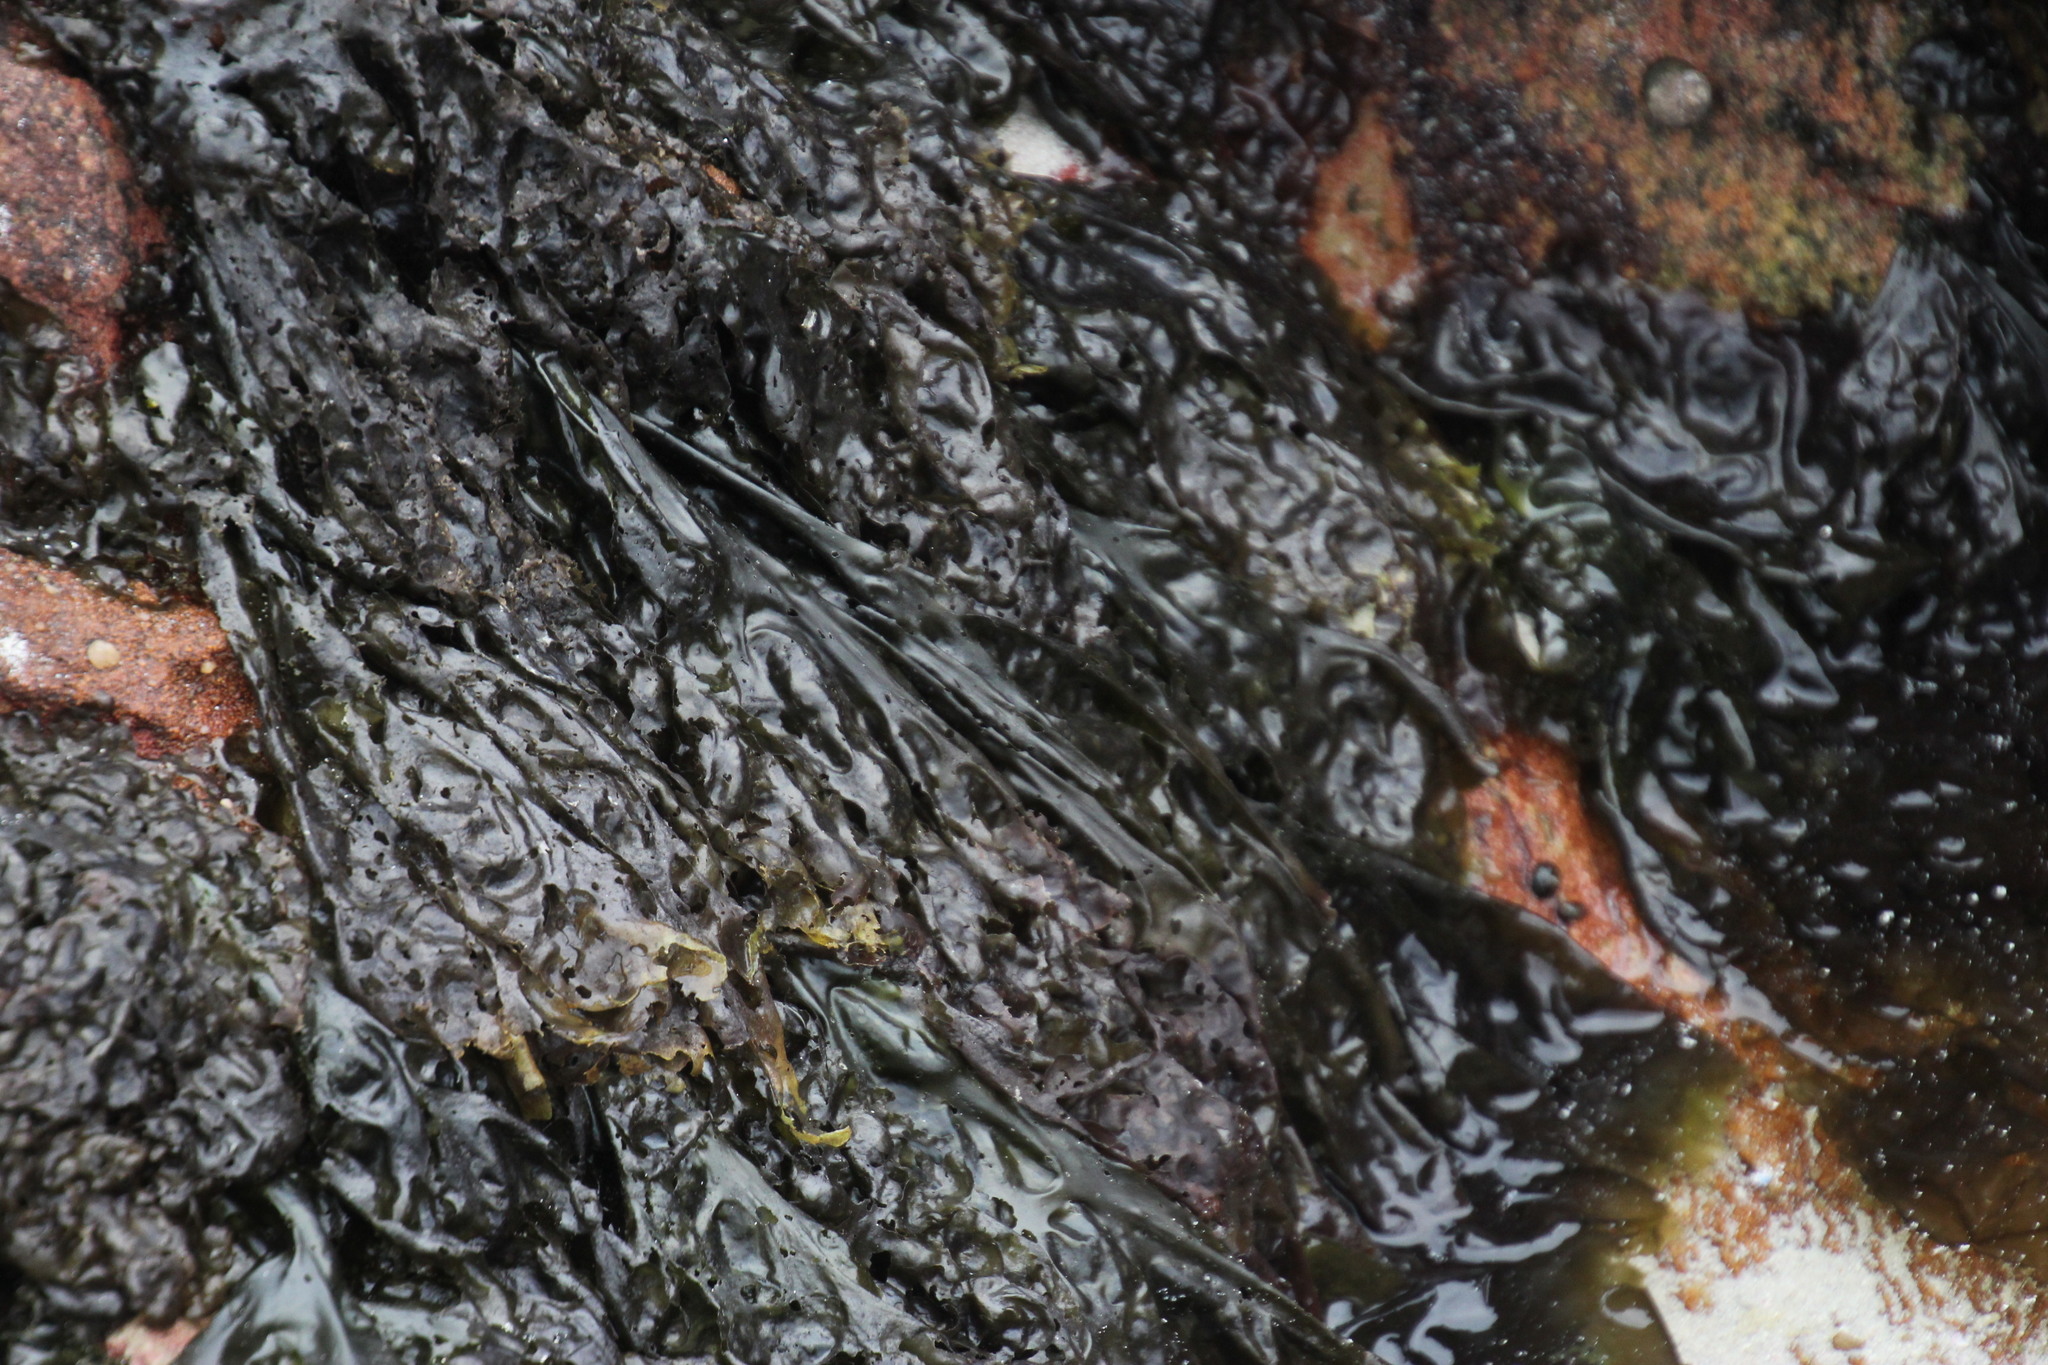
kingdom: Plantae
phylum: Rhodophyta
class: Bangiophyceae
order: Bangiales
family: Bangiaceae
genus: Porphyra
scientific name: Porphyra capensis
